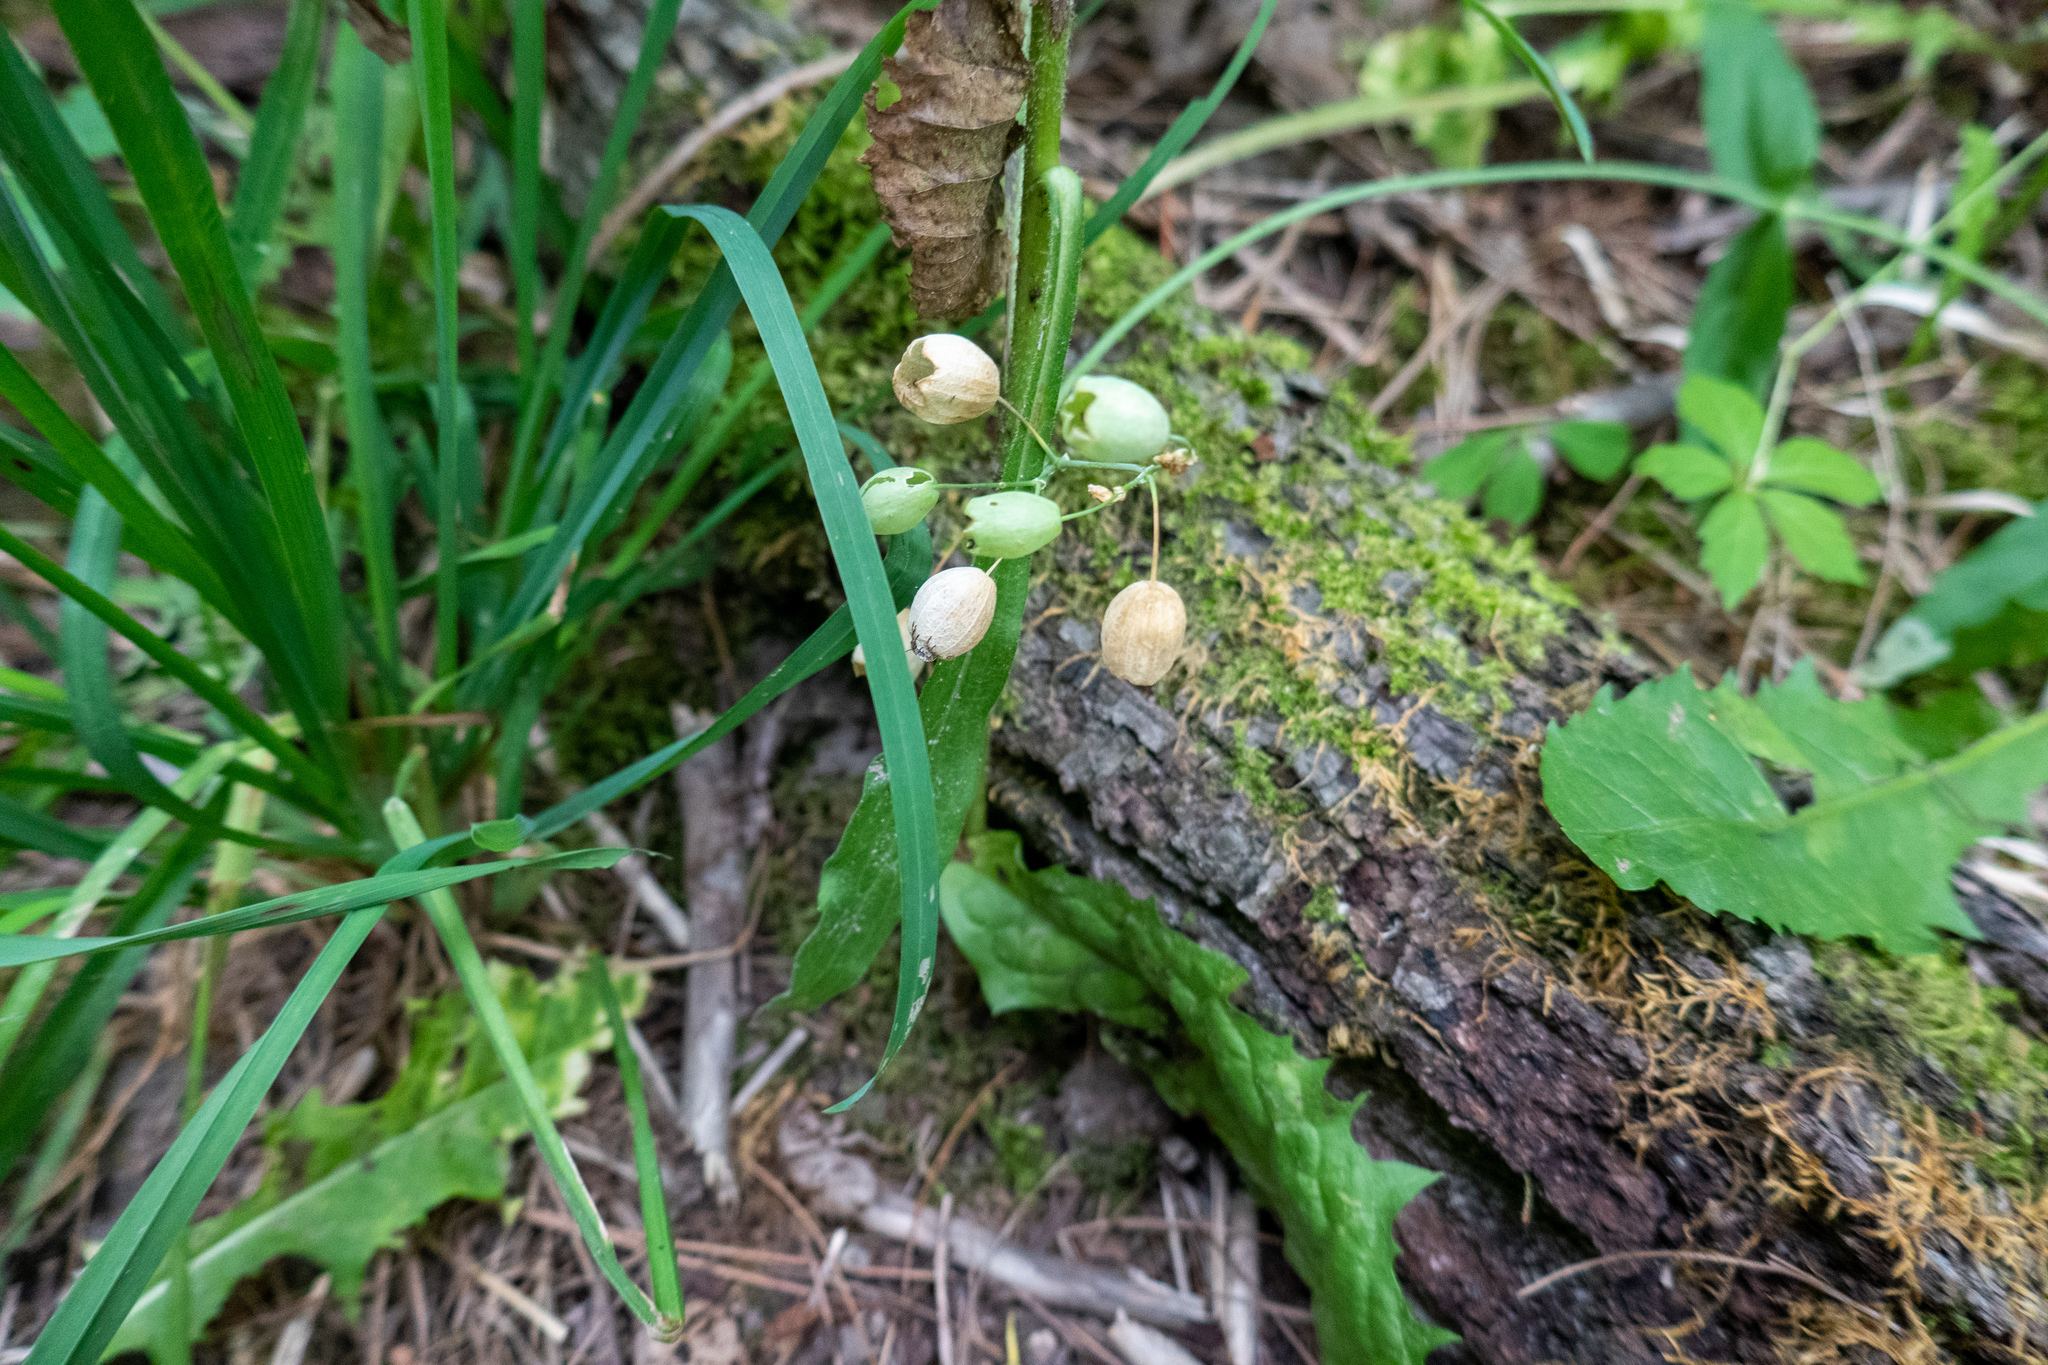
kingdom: Plantae
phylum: Tracheophyta
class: Liliopsida
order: Asparagales
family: Asparagaceae
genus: Convallaria
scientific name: Convallaria majalis
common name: Lily-of-the-valley
